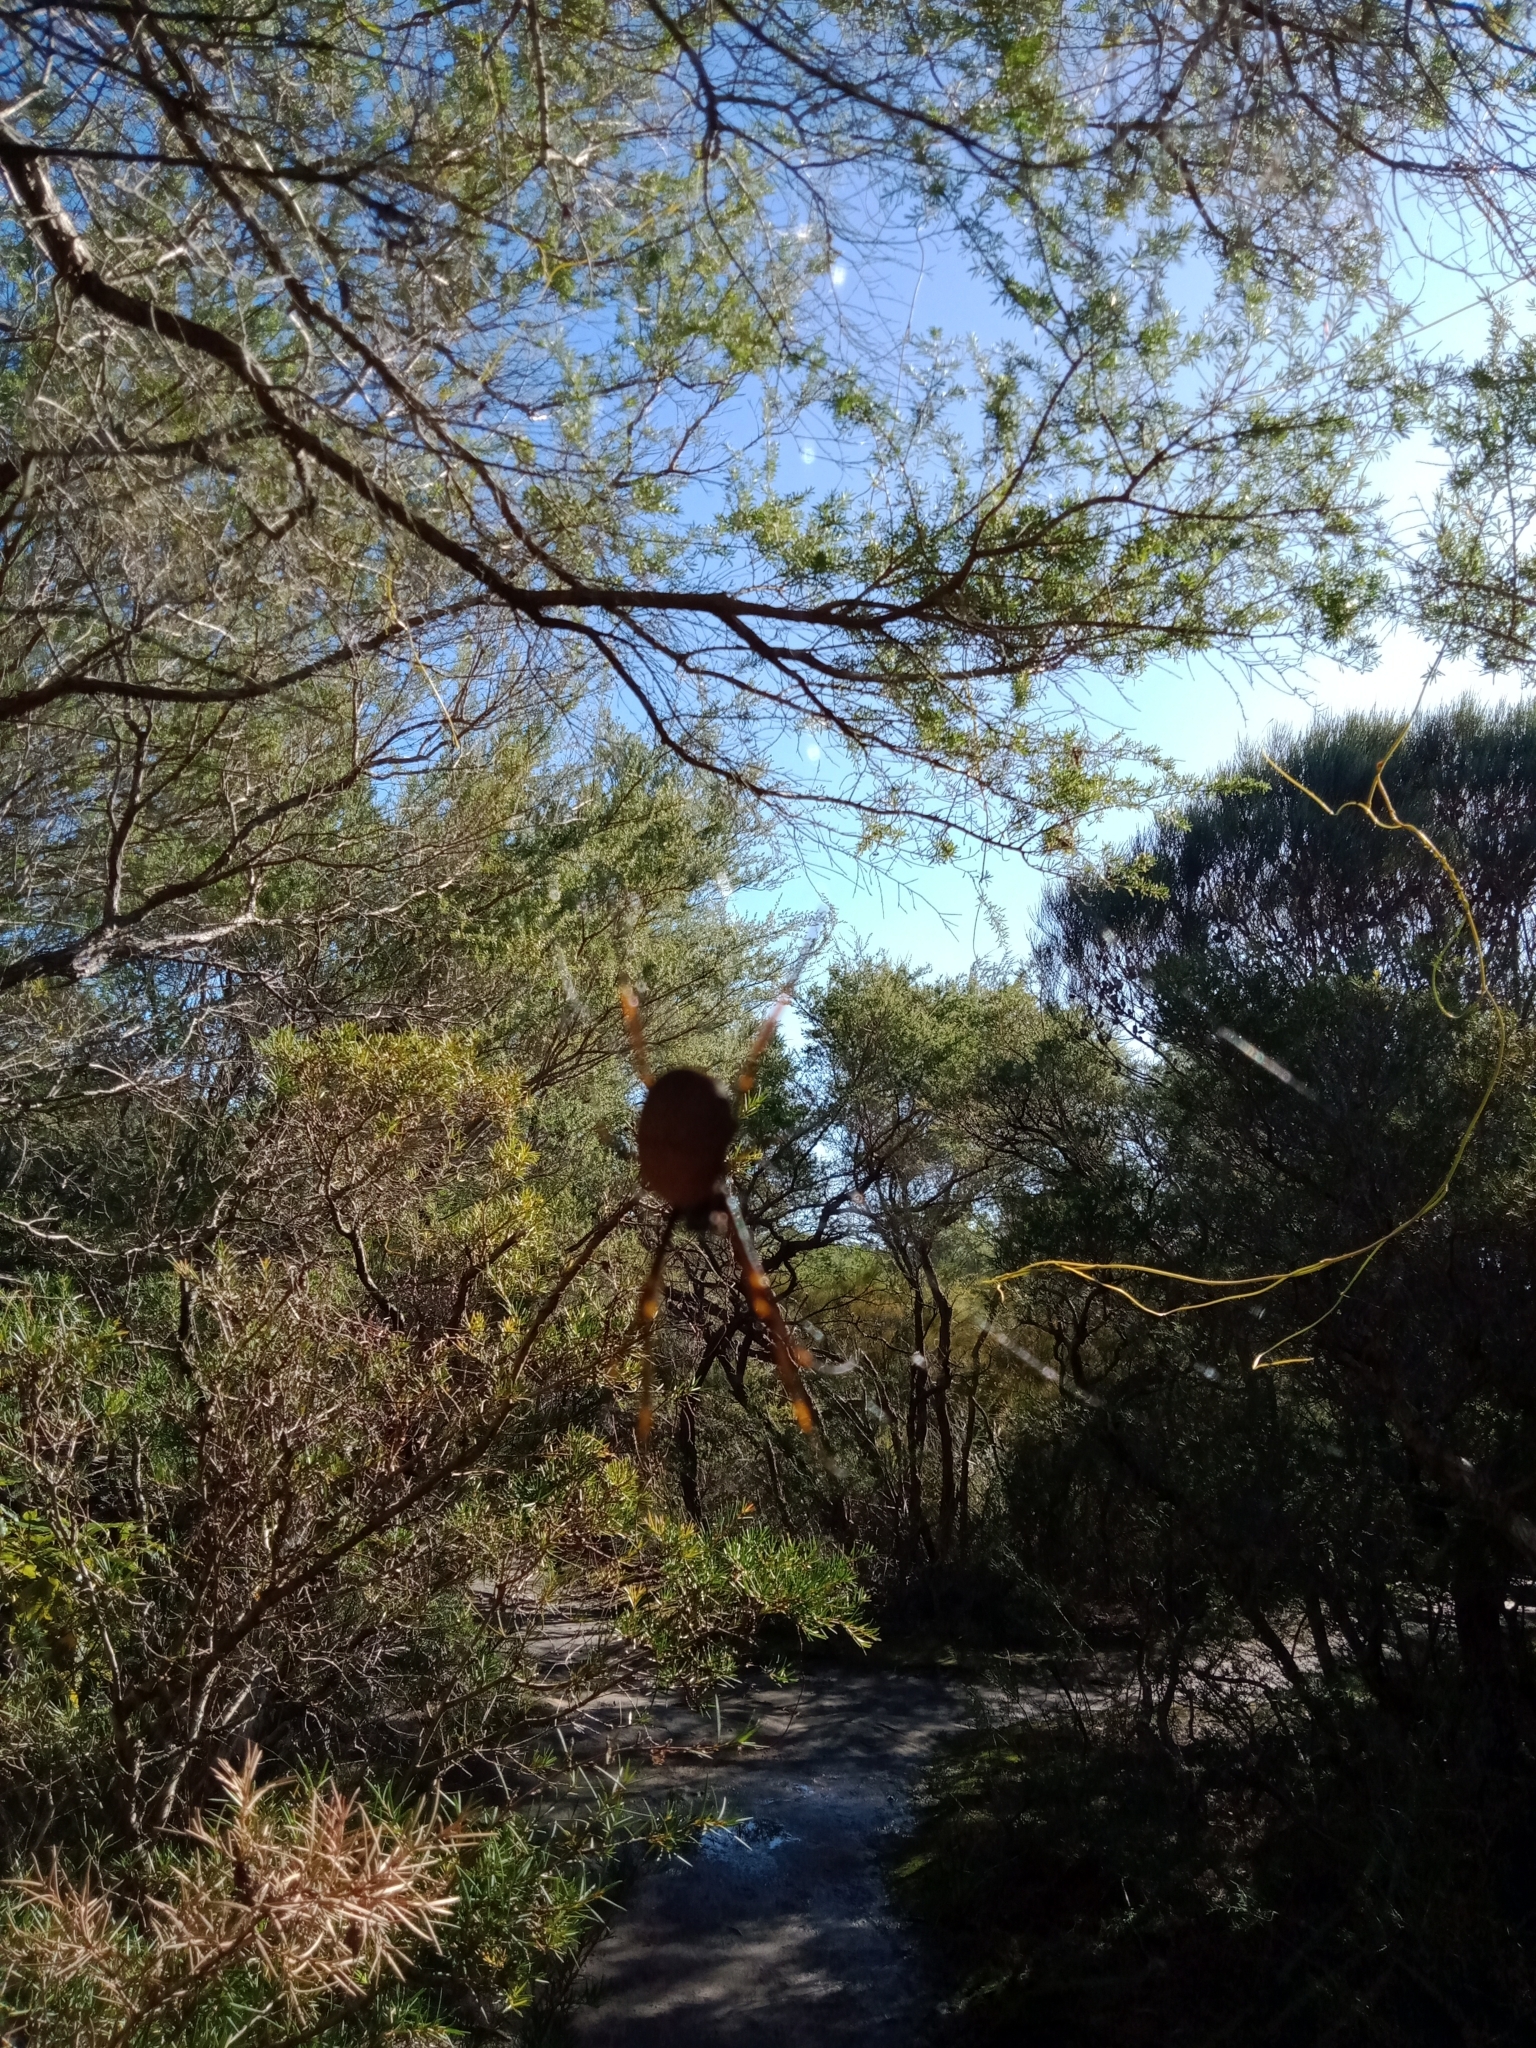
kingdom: Animalia
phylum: Arthropoda
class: Arachnida
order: Araneae
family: Araneidae
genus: Trichonephila
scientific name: Trichonephila plumipes
